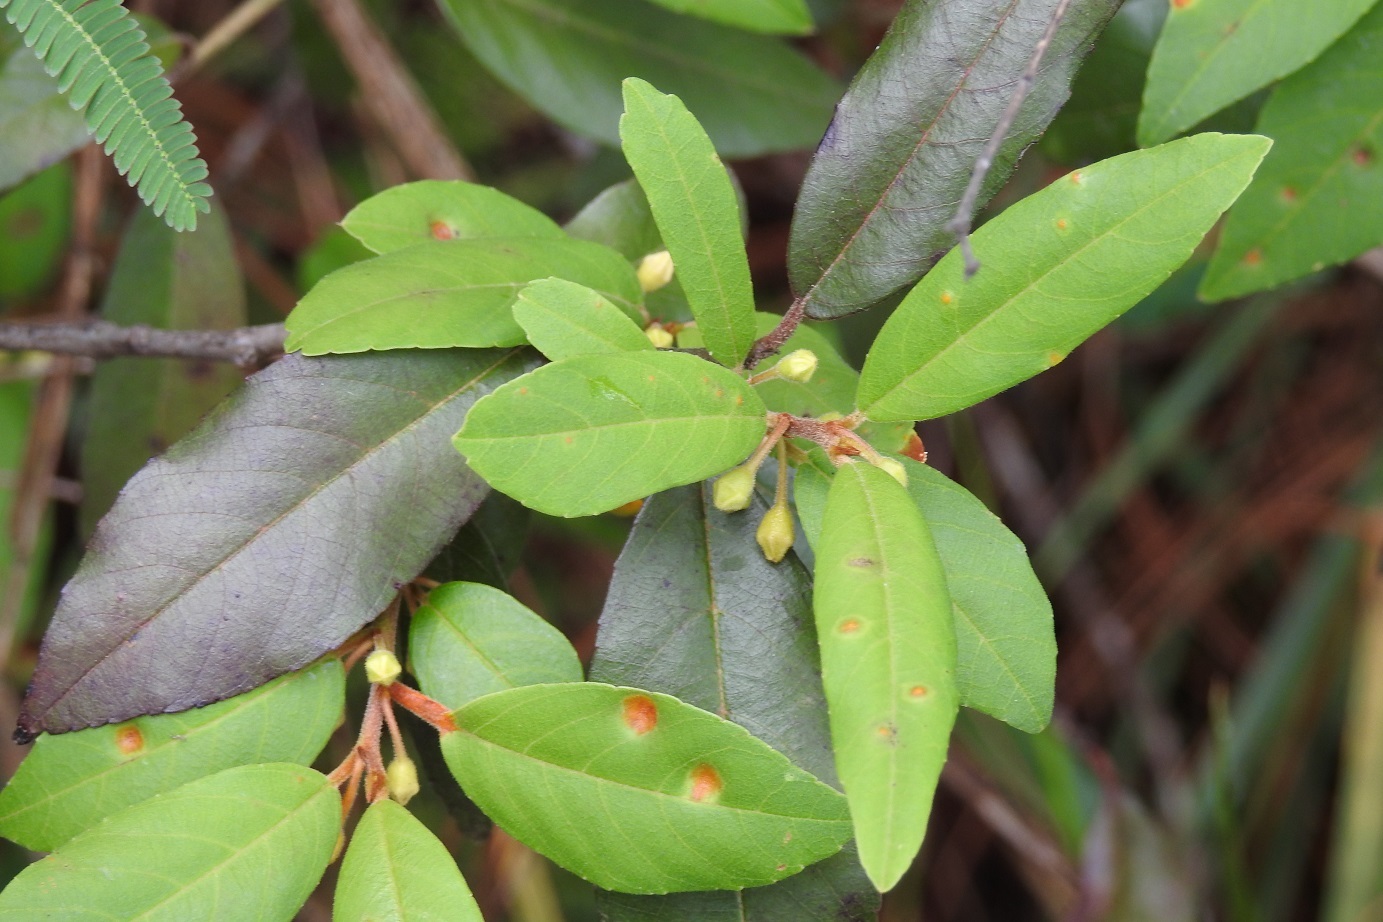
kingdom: Plantae
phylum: Tracheophyta
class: Magnoliopsida
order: Rosales
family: Rhamnaceae
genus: Frangula
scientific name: Frangula mucronata
